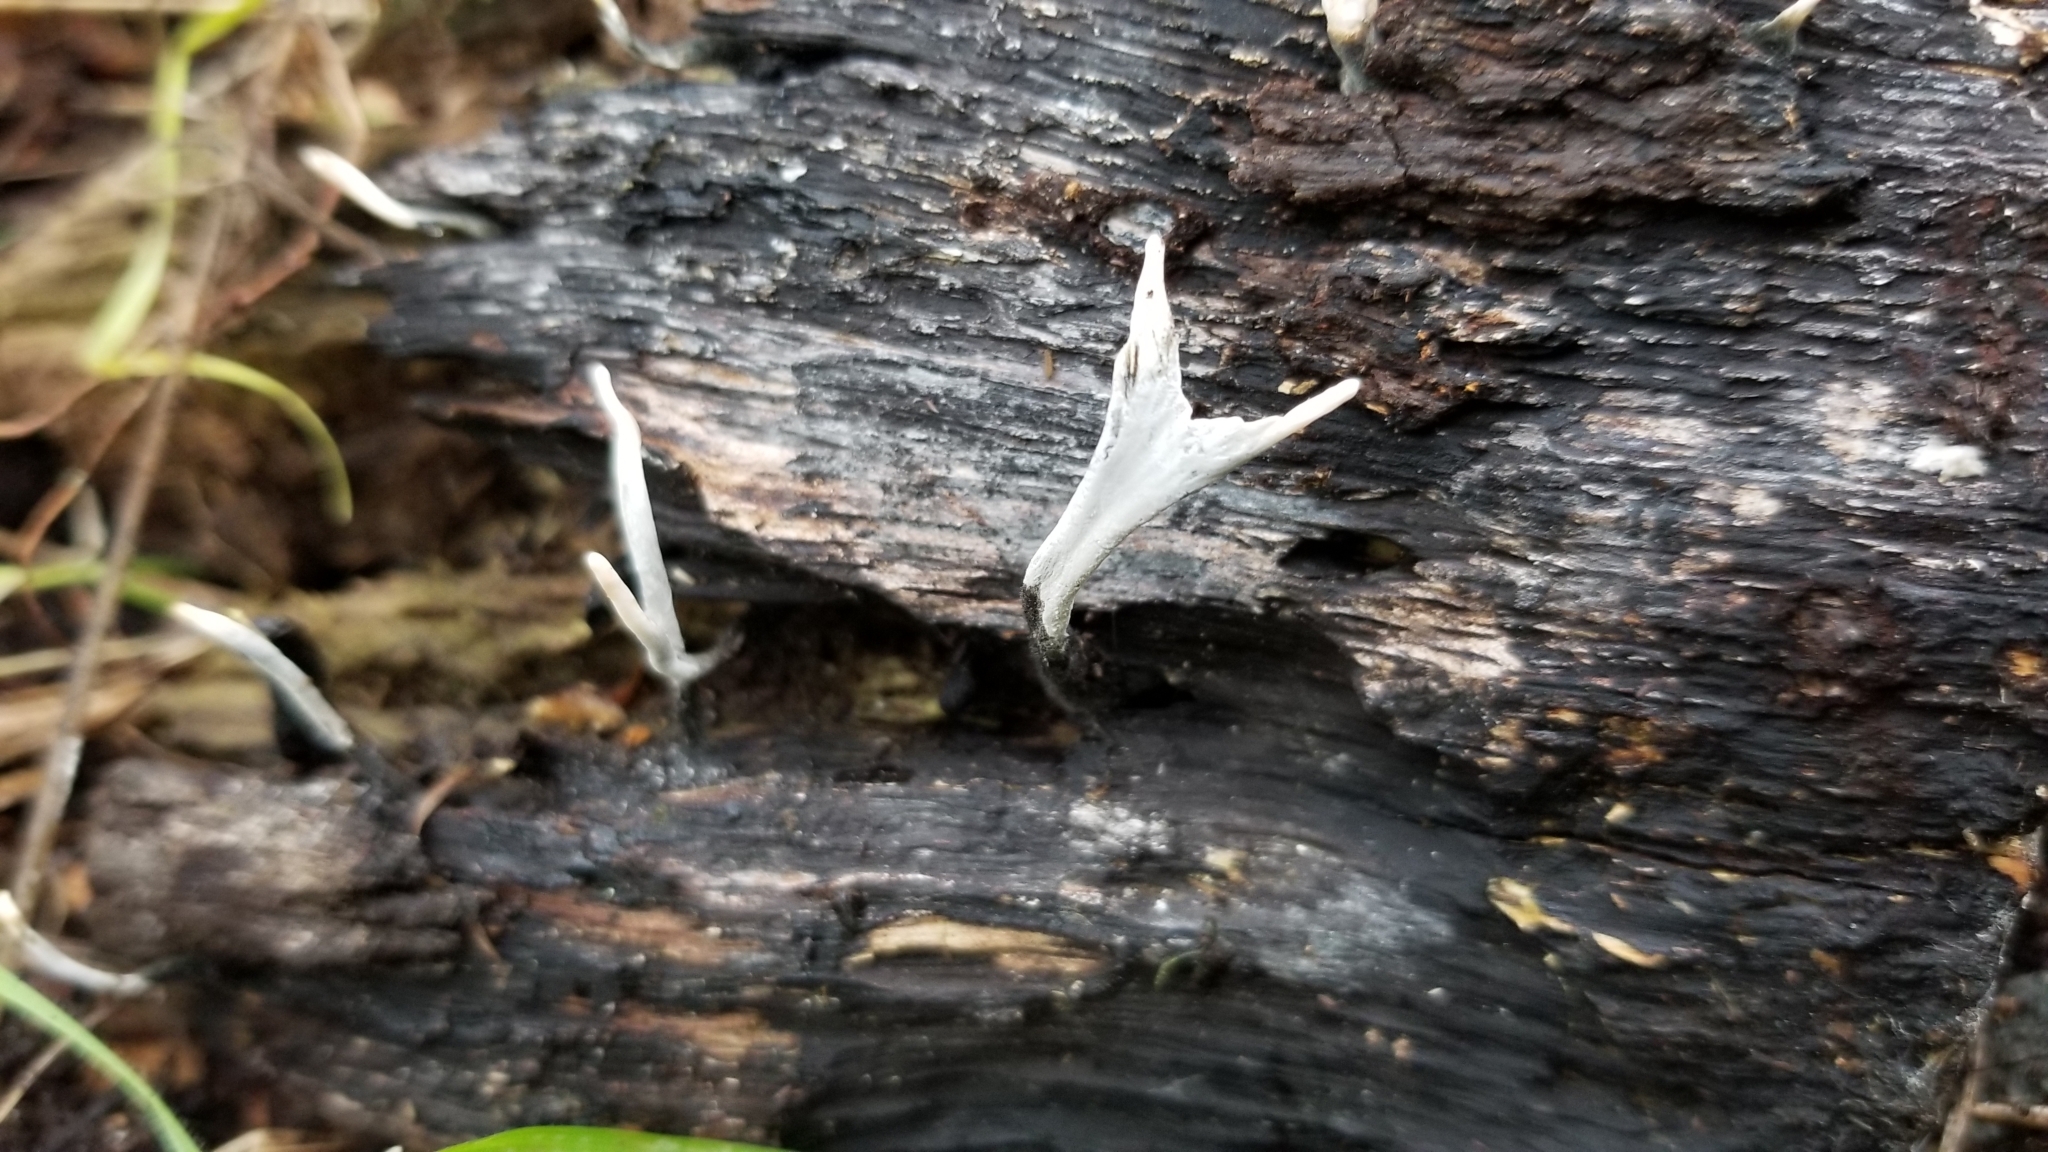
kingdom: Fungi
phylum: Ascomycota
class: Sordariomycetes
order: Xylariales
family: Xylariaceae
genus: Xylaria
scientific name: Xylaria hypoxylon
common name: Candle-snuff fungus
